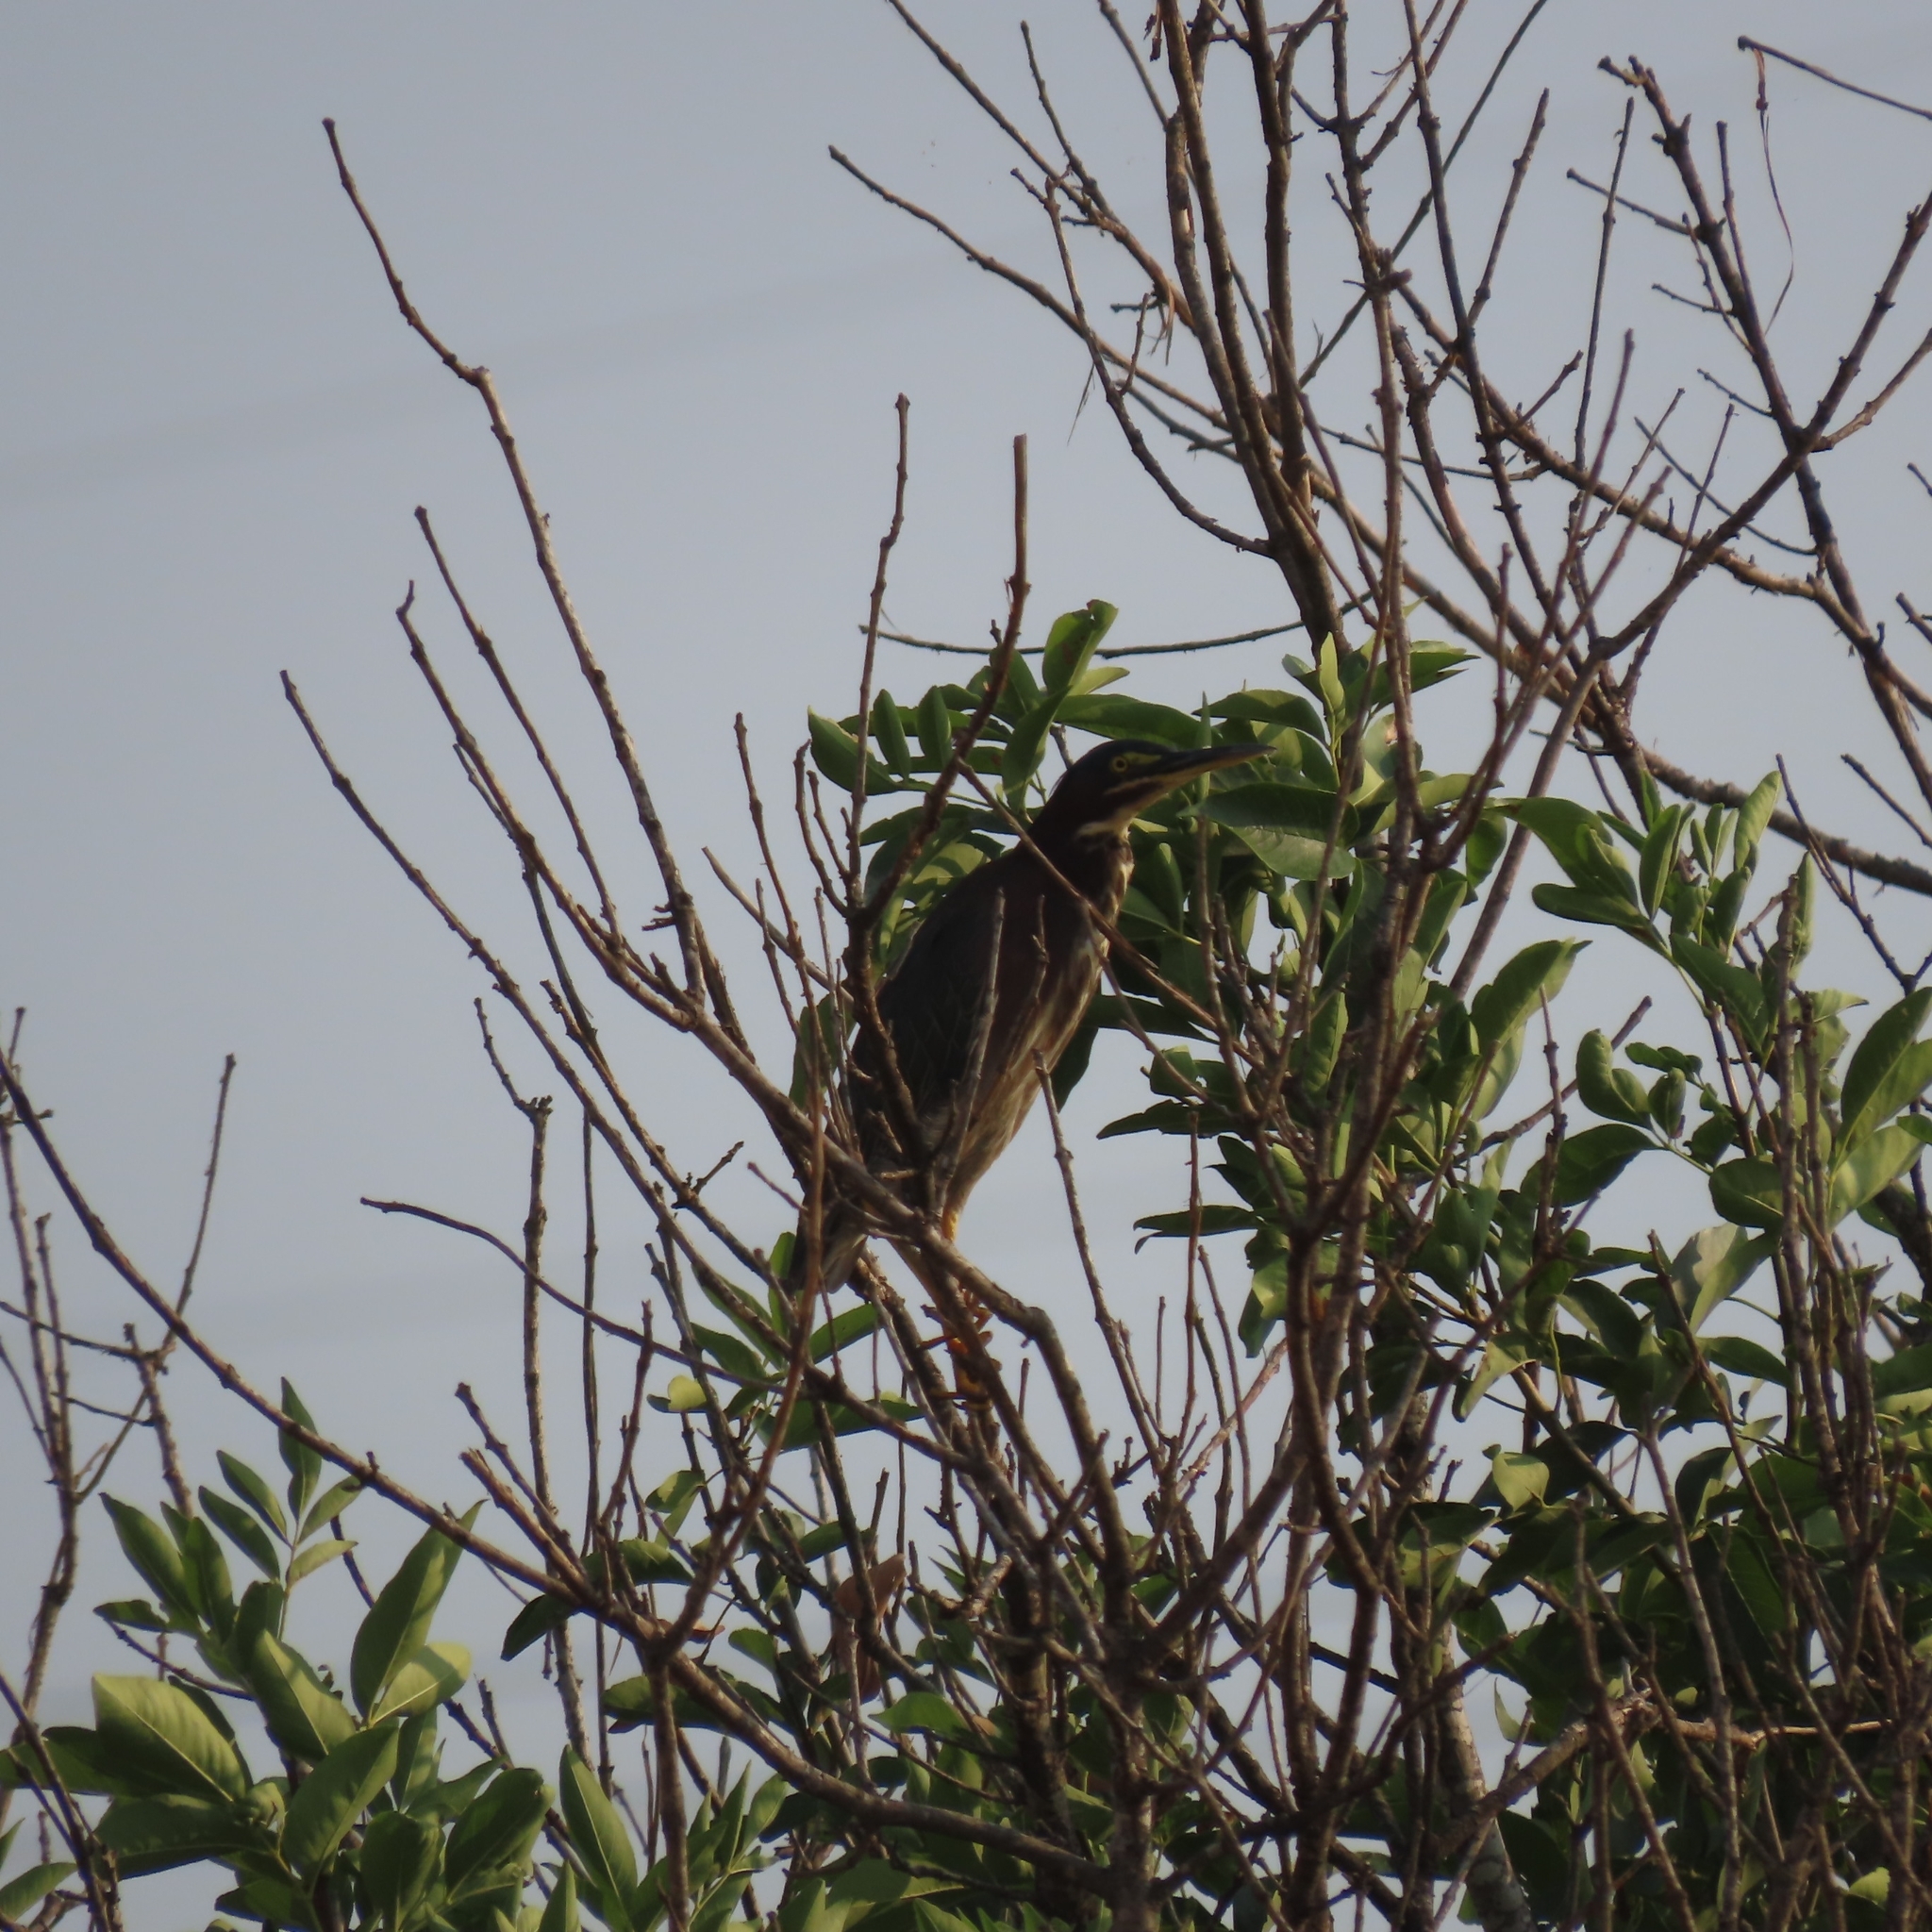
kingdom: Animalia
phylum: Chordata
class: Aves
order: Pelecaniformes
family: Ardeidae
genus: Butorides
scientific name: Butorides virescens
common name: Green heron
